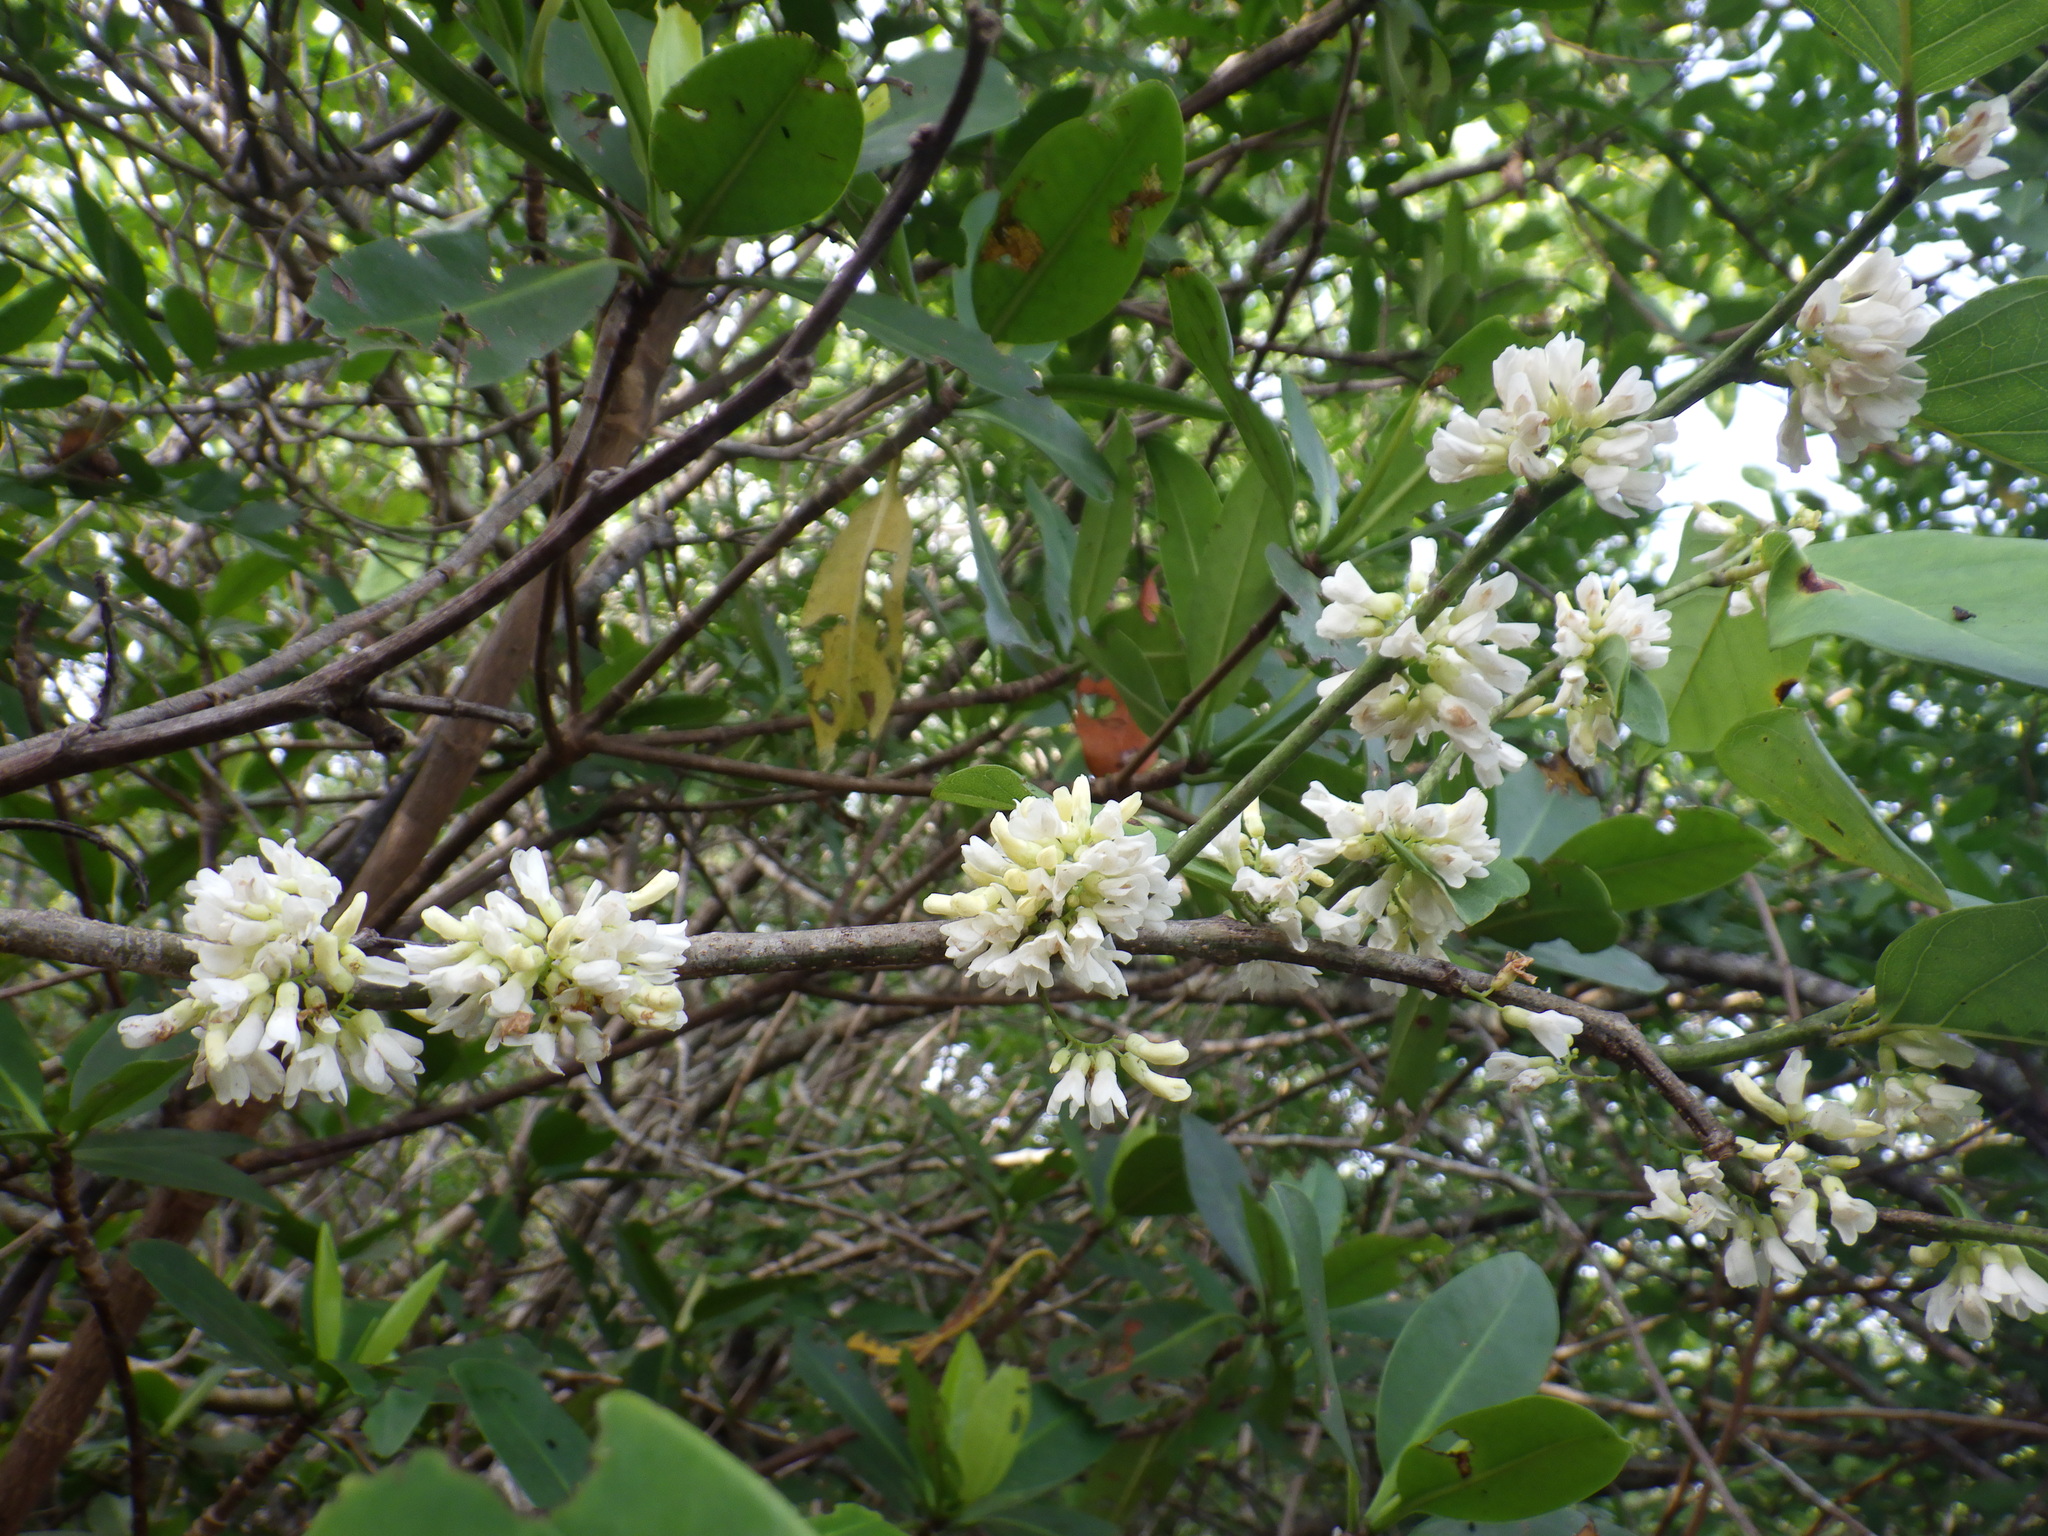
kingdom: Plantae
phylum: Tracheophyta
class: Magnoliopsida
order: Fabales
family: Fabaceae
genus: Dalbergia
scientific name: Dalbergia ecastaphyllum
